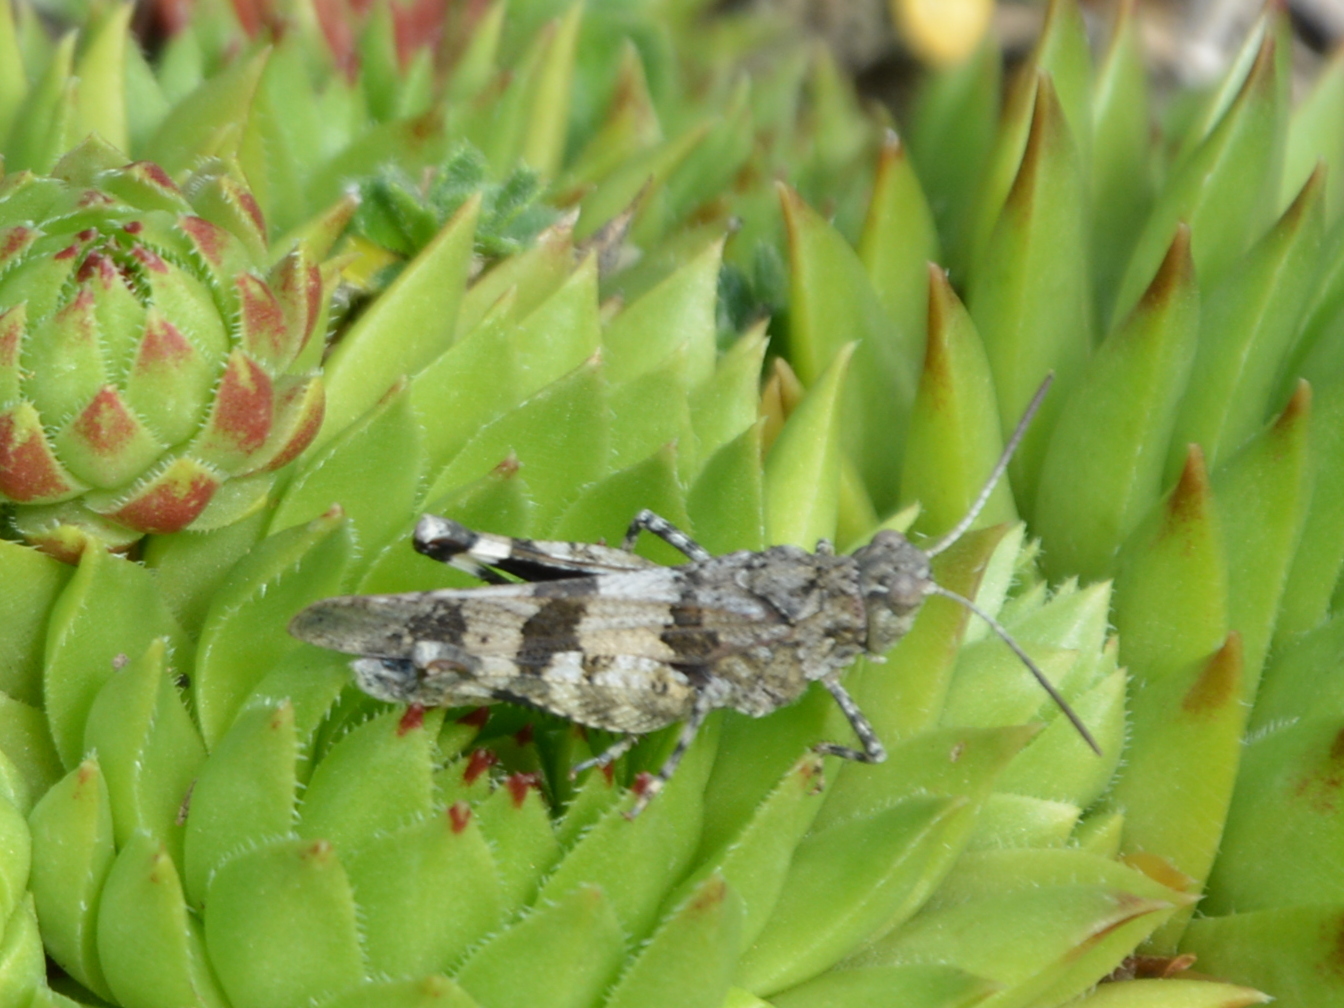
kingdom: Animalia
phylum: Arthropoda
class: Insecta
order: Orthoptera
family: Acrididae
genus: Oedipoda
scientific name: Oedipoda caerulescens
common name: Blue-winged grasshopper
